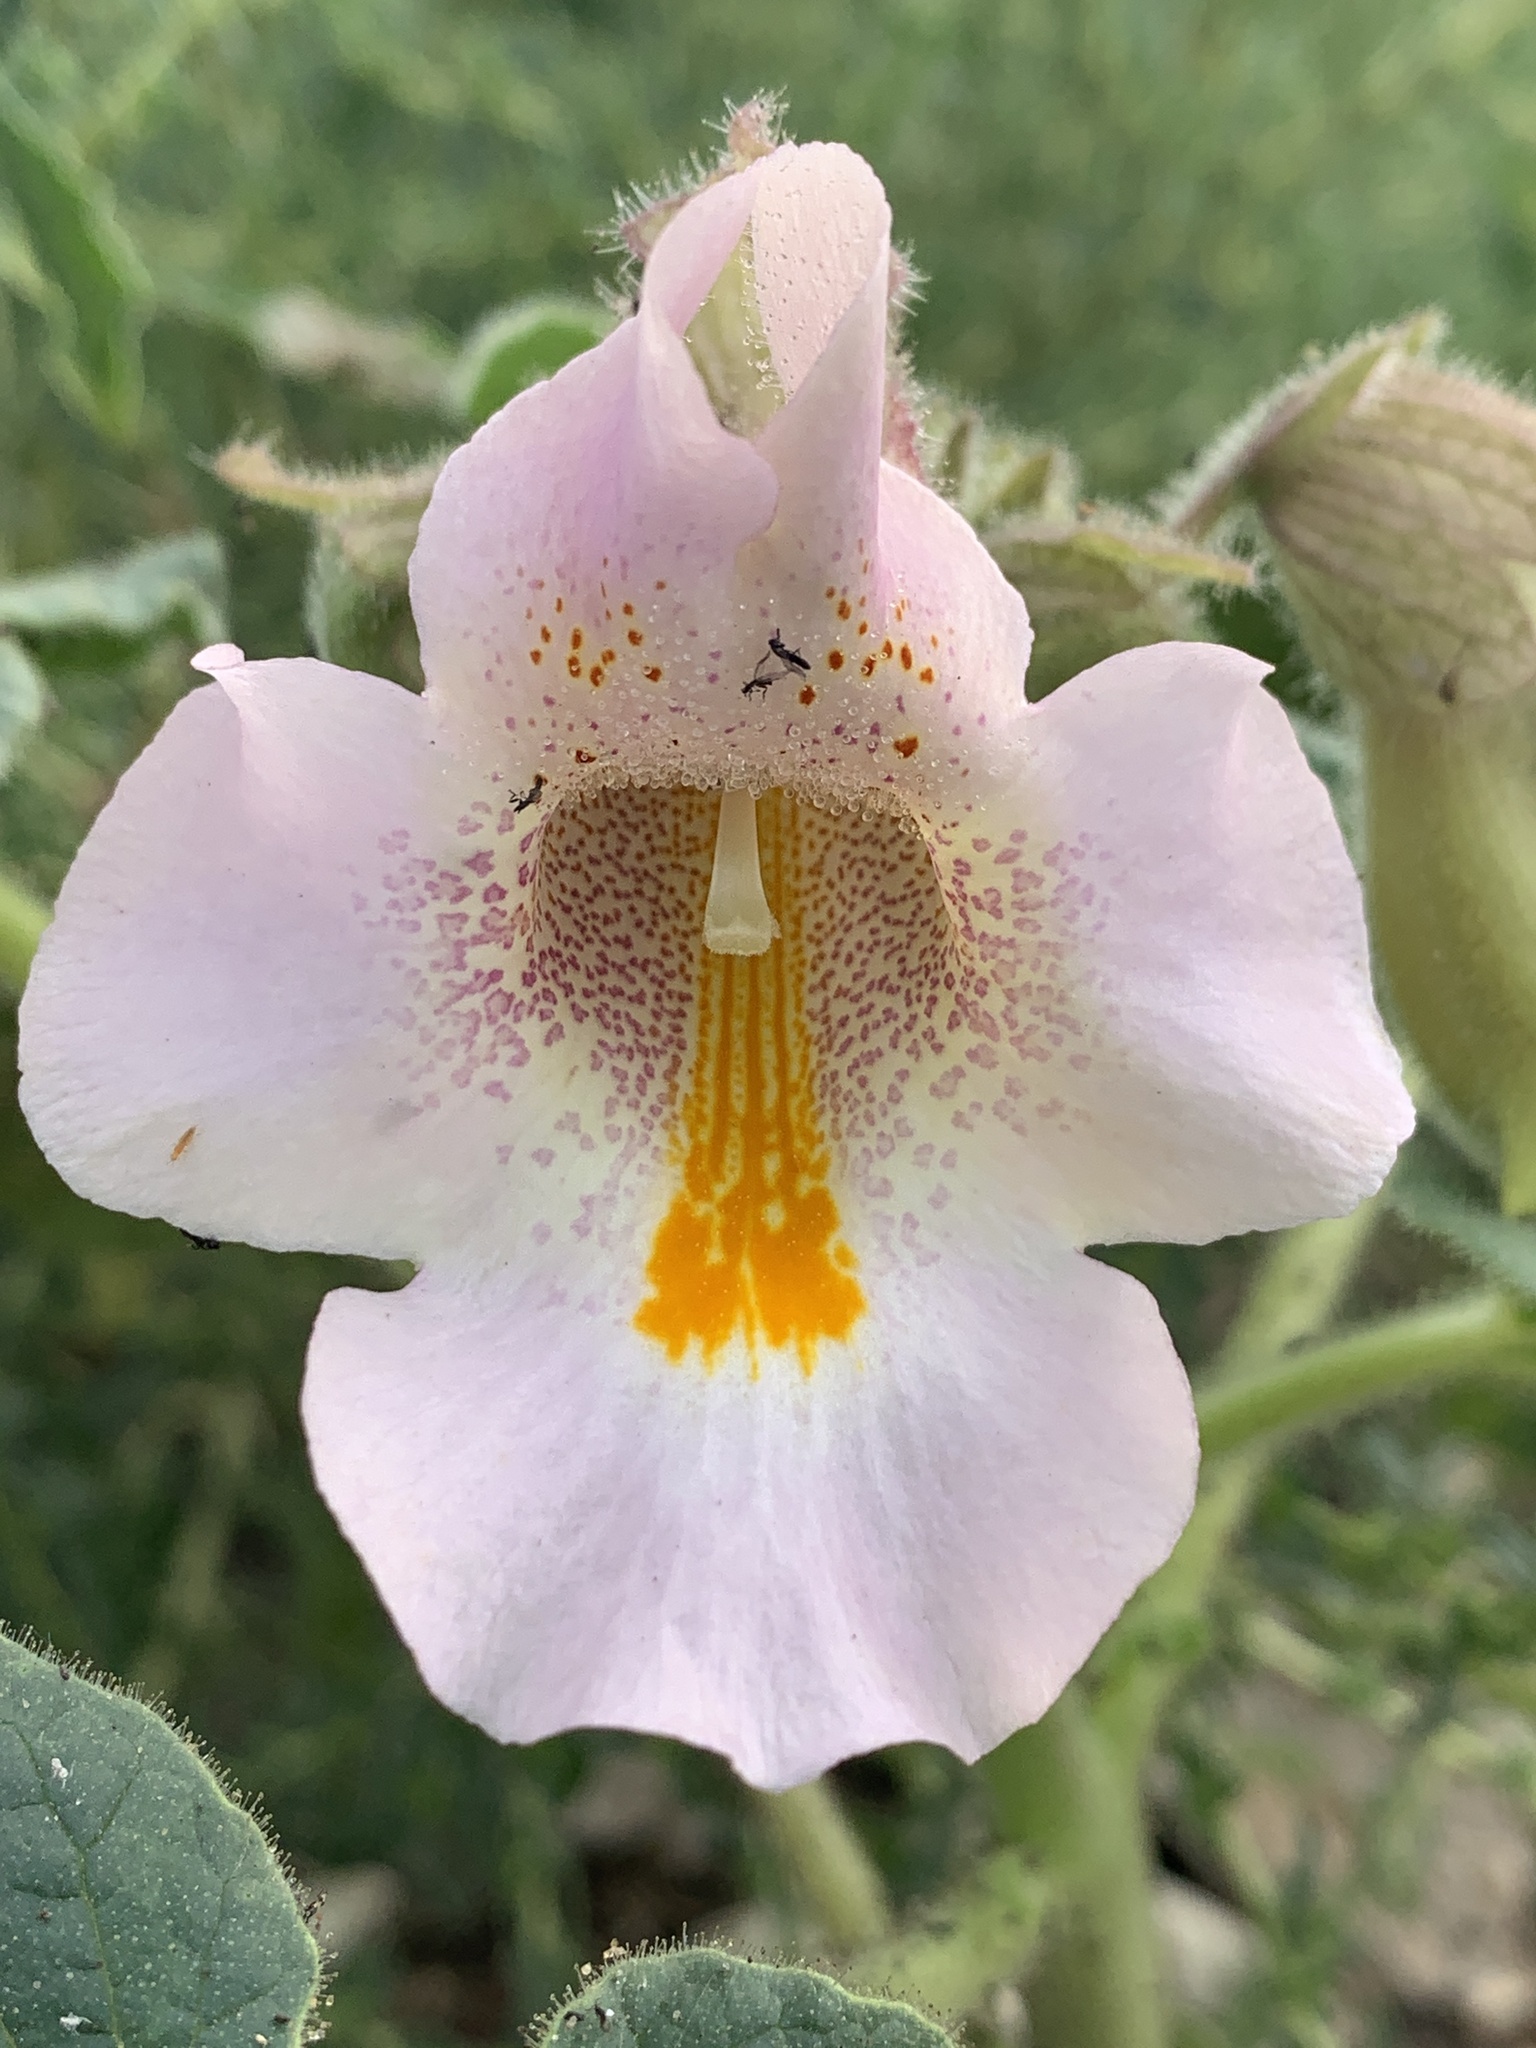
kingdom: Plantae
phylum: Tracheophyta
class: Magnoliopsida
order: Lamiales
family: Martyniaceae
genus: Proboscidea
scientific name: Proboscidea louisianica
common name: Elephant tusks
